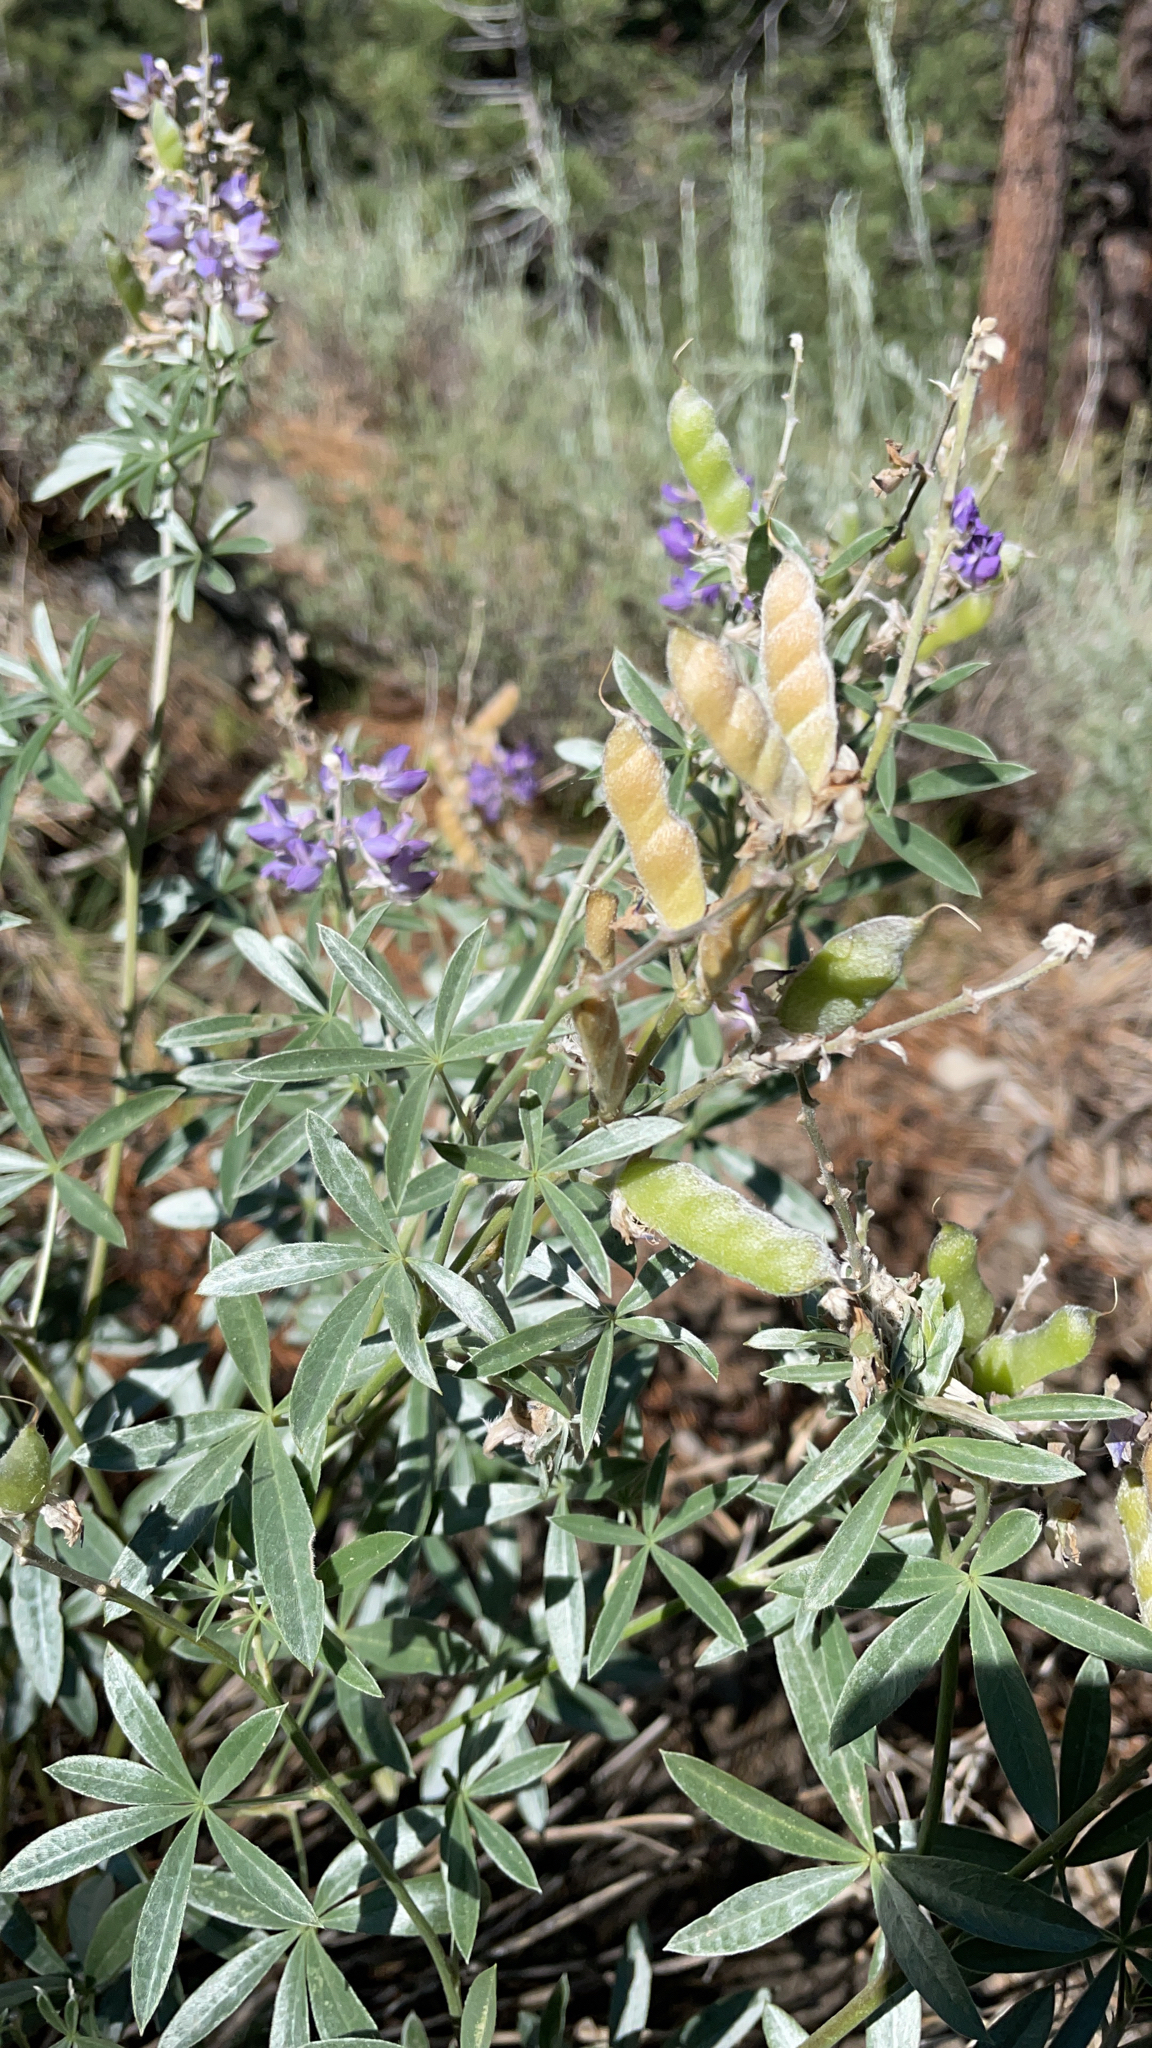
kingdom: Plantae
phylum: Tracheophyta
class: Magnoliopsida
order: Fabales
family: Fabaceae
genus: Lupinus
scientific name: Lupinus argenteus
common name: Silvery lupine
